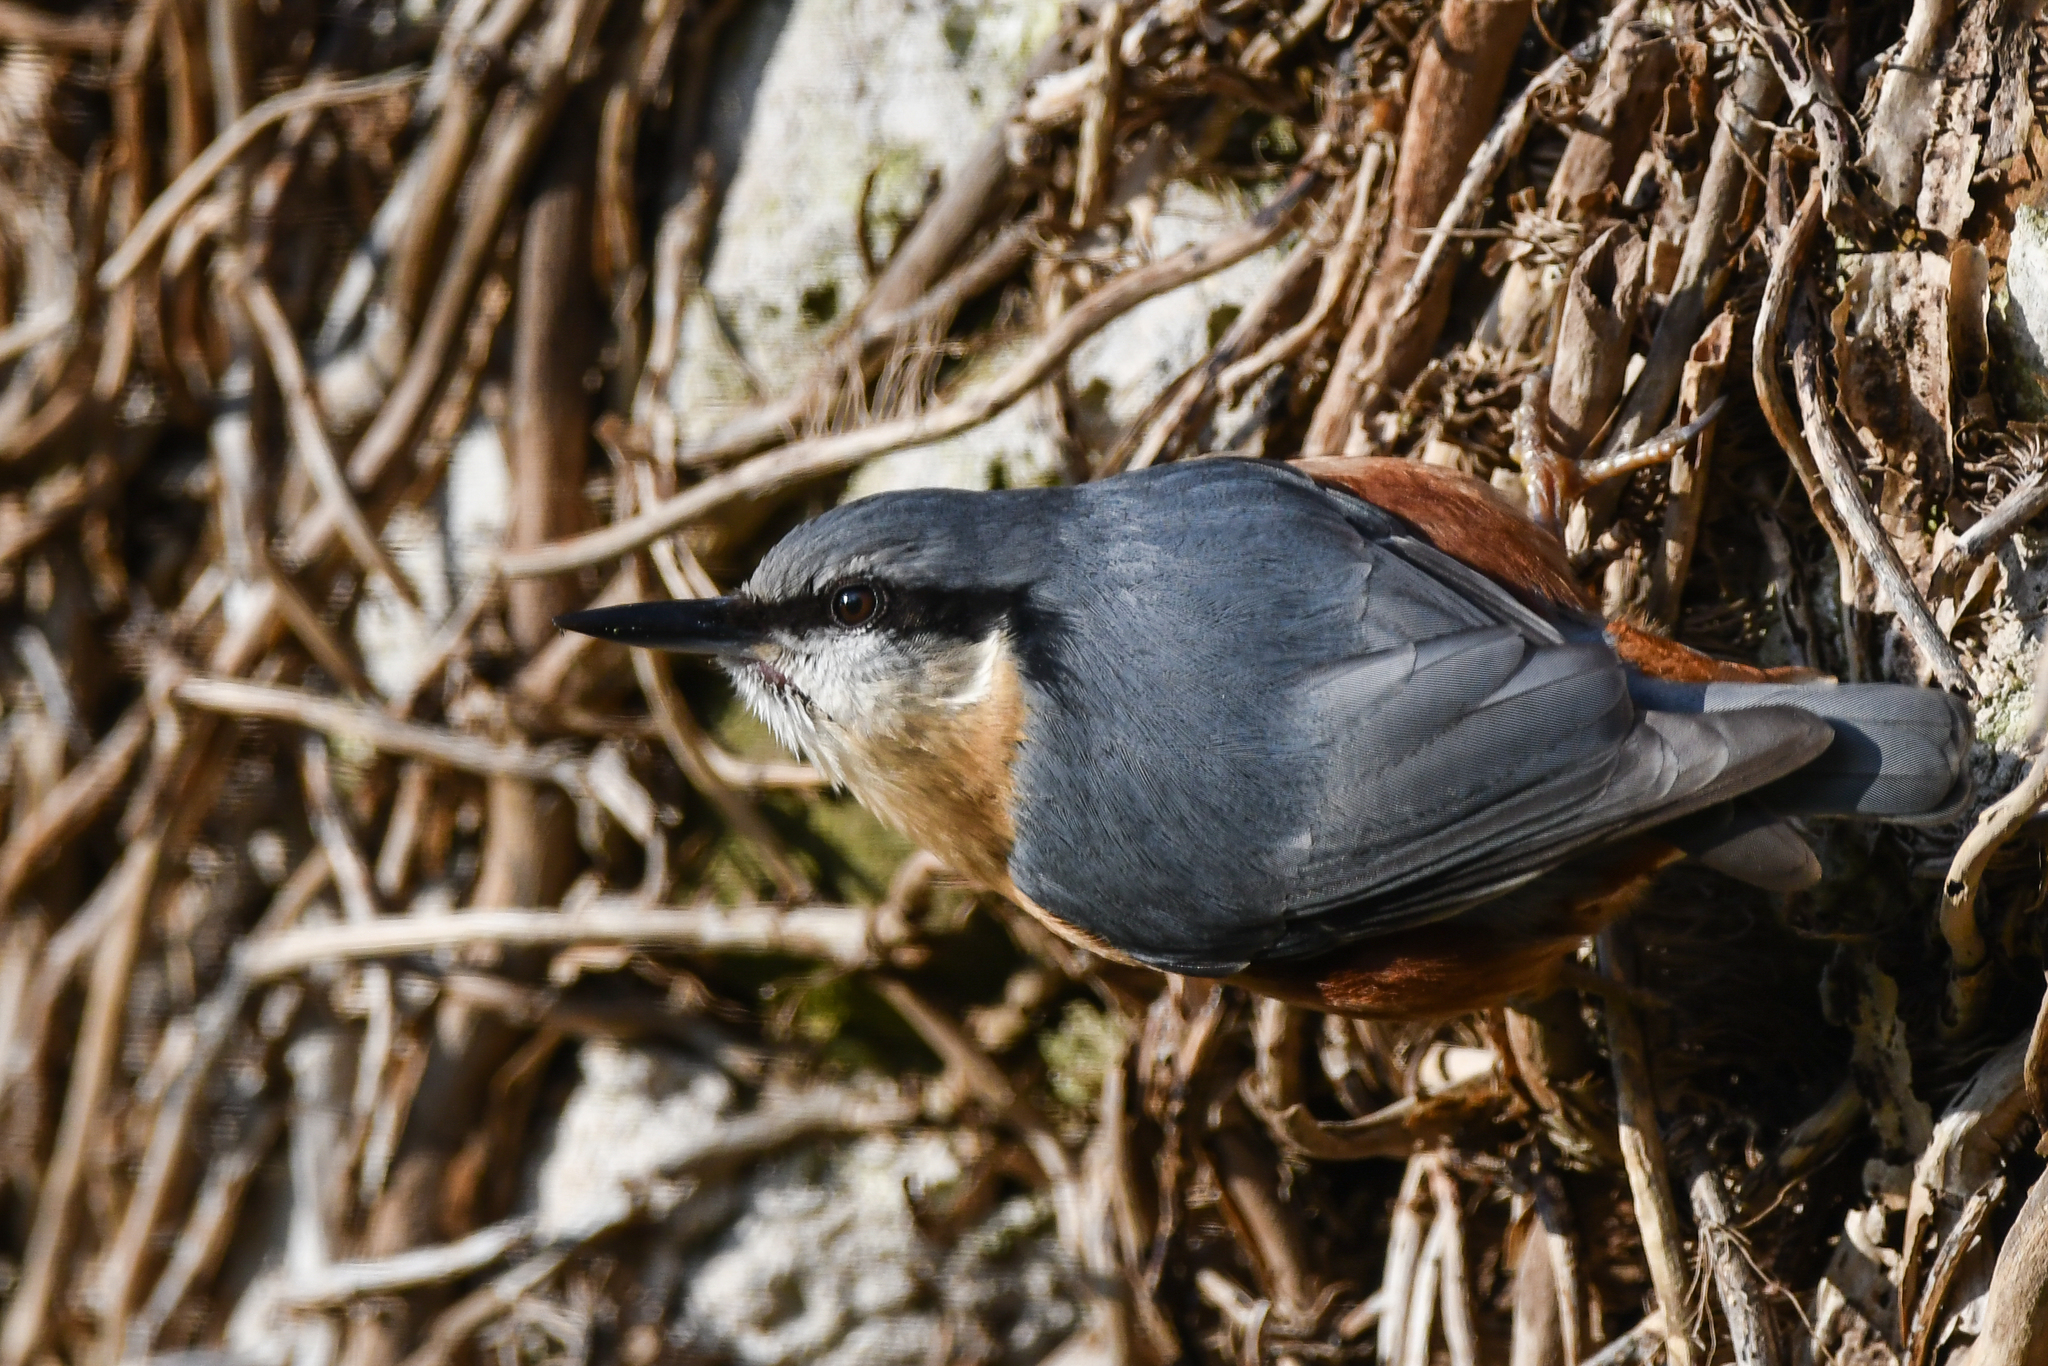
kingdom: Animalia
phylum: Chordata
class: Aves
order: Passeriformes
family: Sittidae
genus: Sitta
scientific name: Sitta europaea
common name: Eurasian nuthatch
